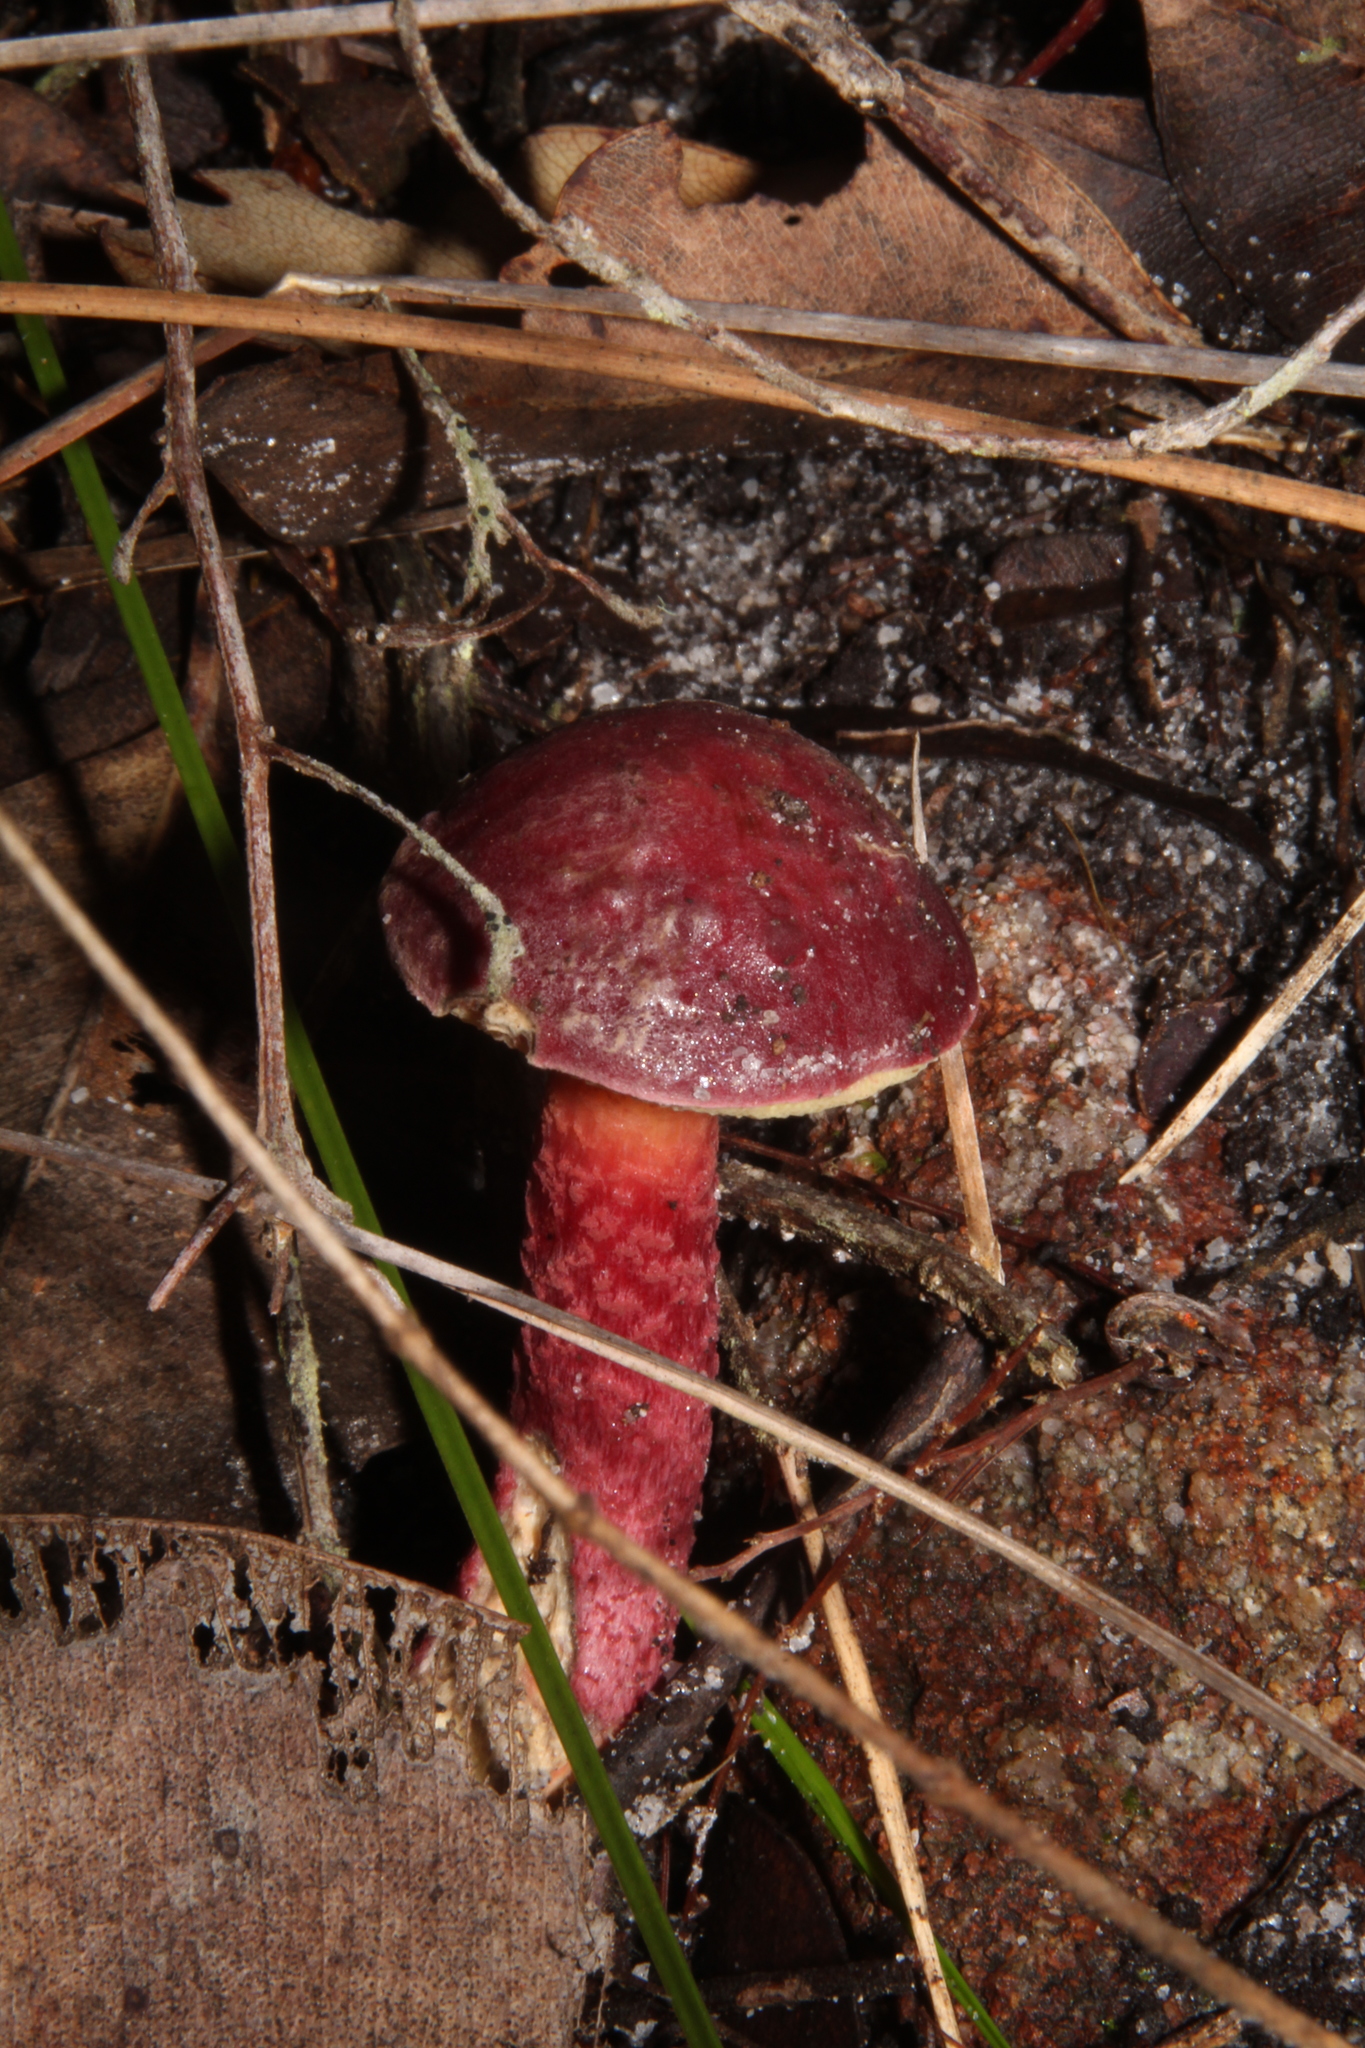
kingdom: Fungi
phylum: Basidiomycota
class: Agaricomycetes
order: Boletales
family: Boletaceae
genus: Boletellus
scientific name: Boletellus obscurecoccineus
